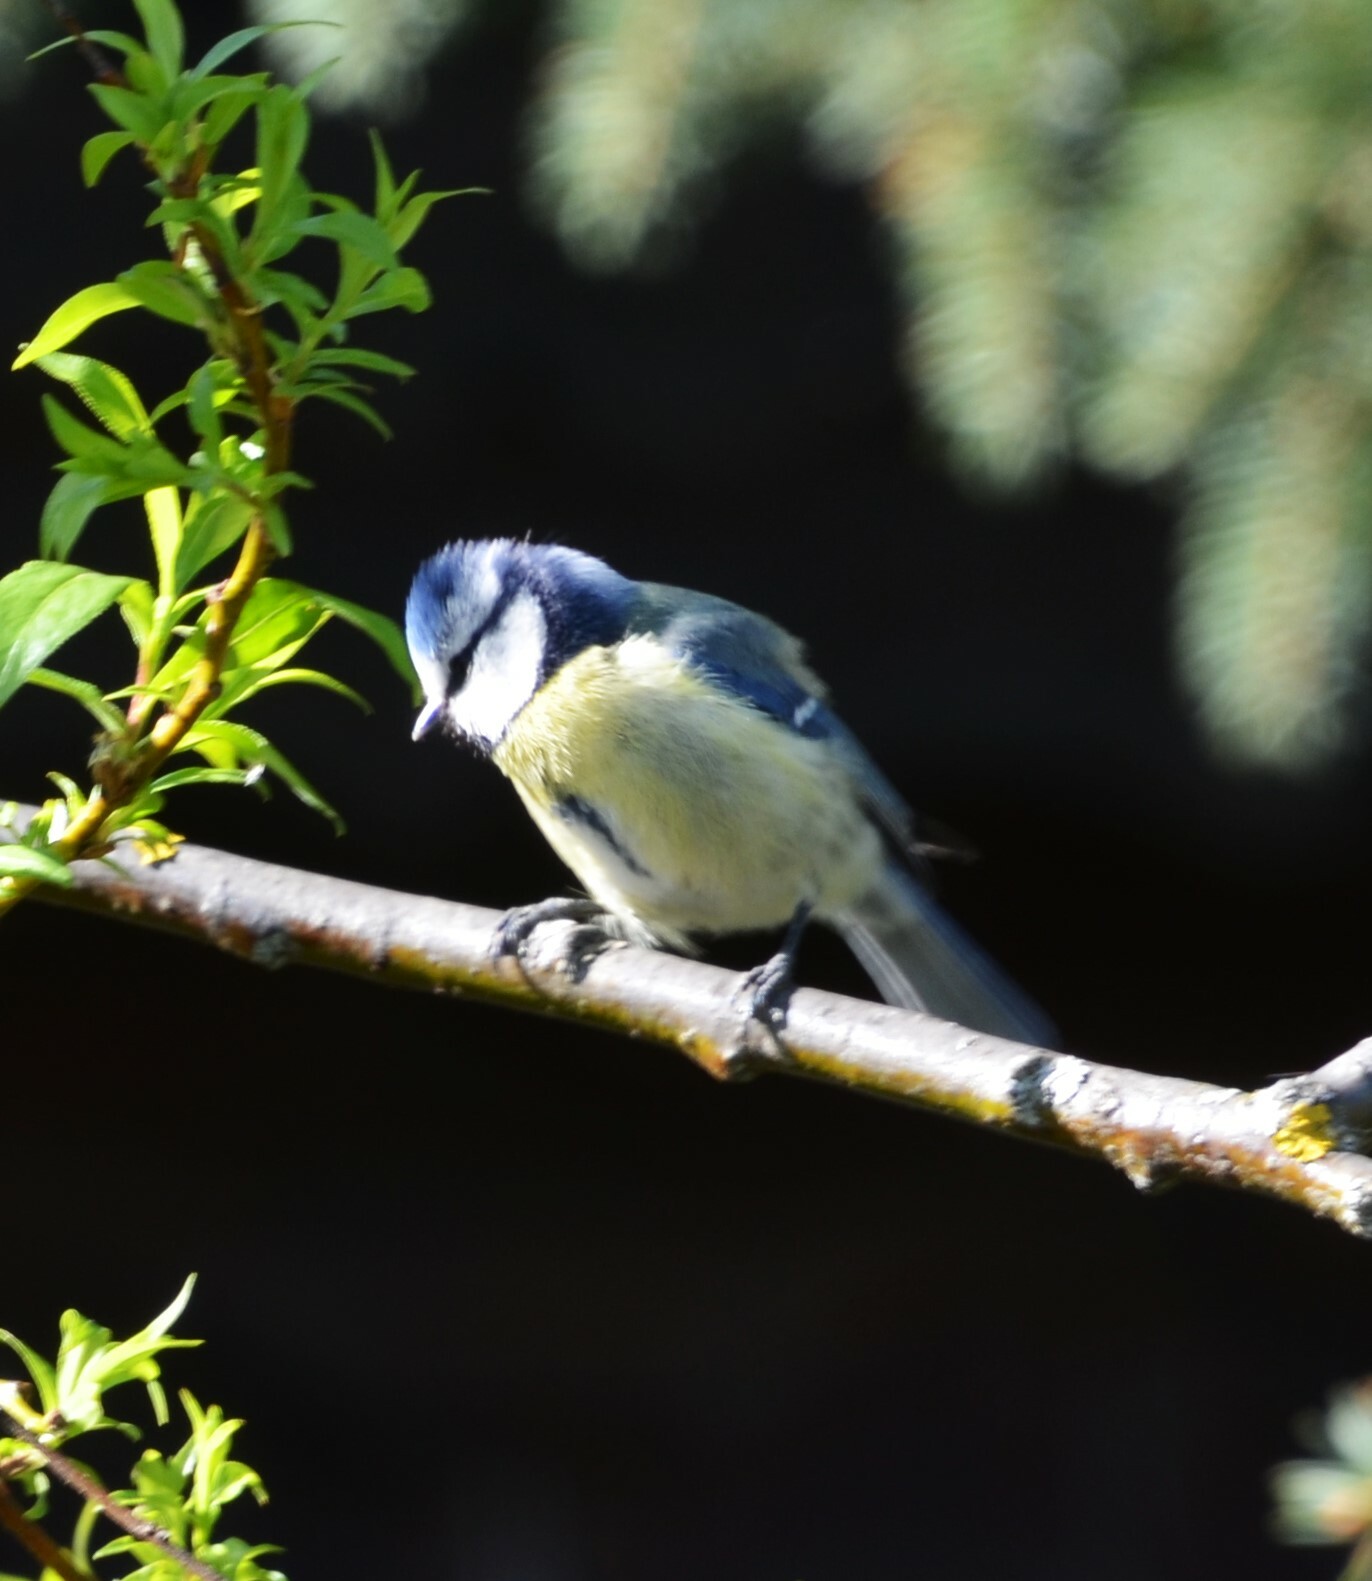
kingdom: Animalia
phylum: Chordata
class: Aves
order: Passeriformes
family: Paridae
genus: Cyanistes
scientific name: Cyanistes caeruleus
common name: Eurasian blue tit
